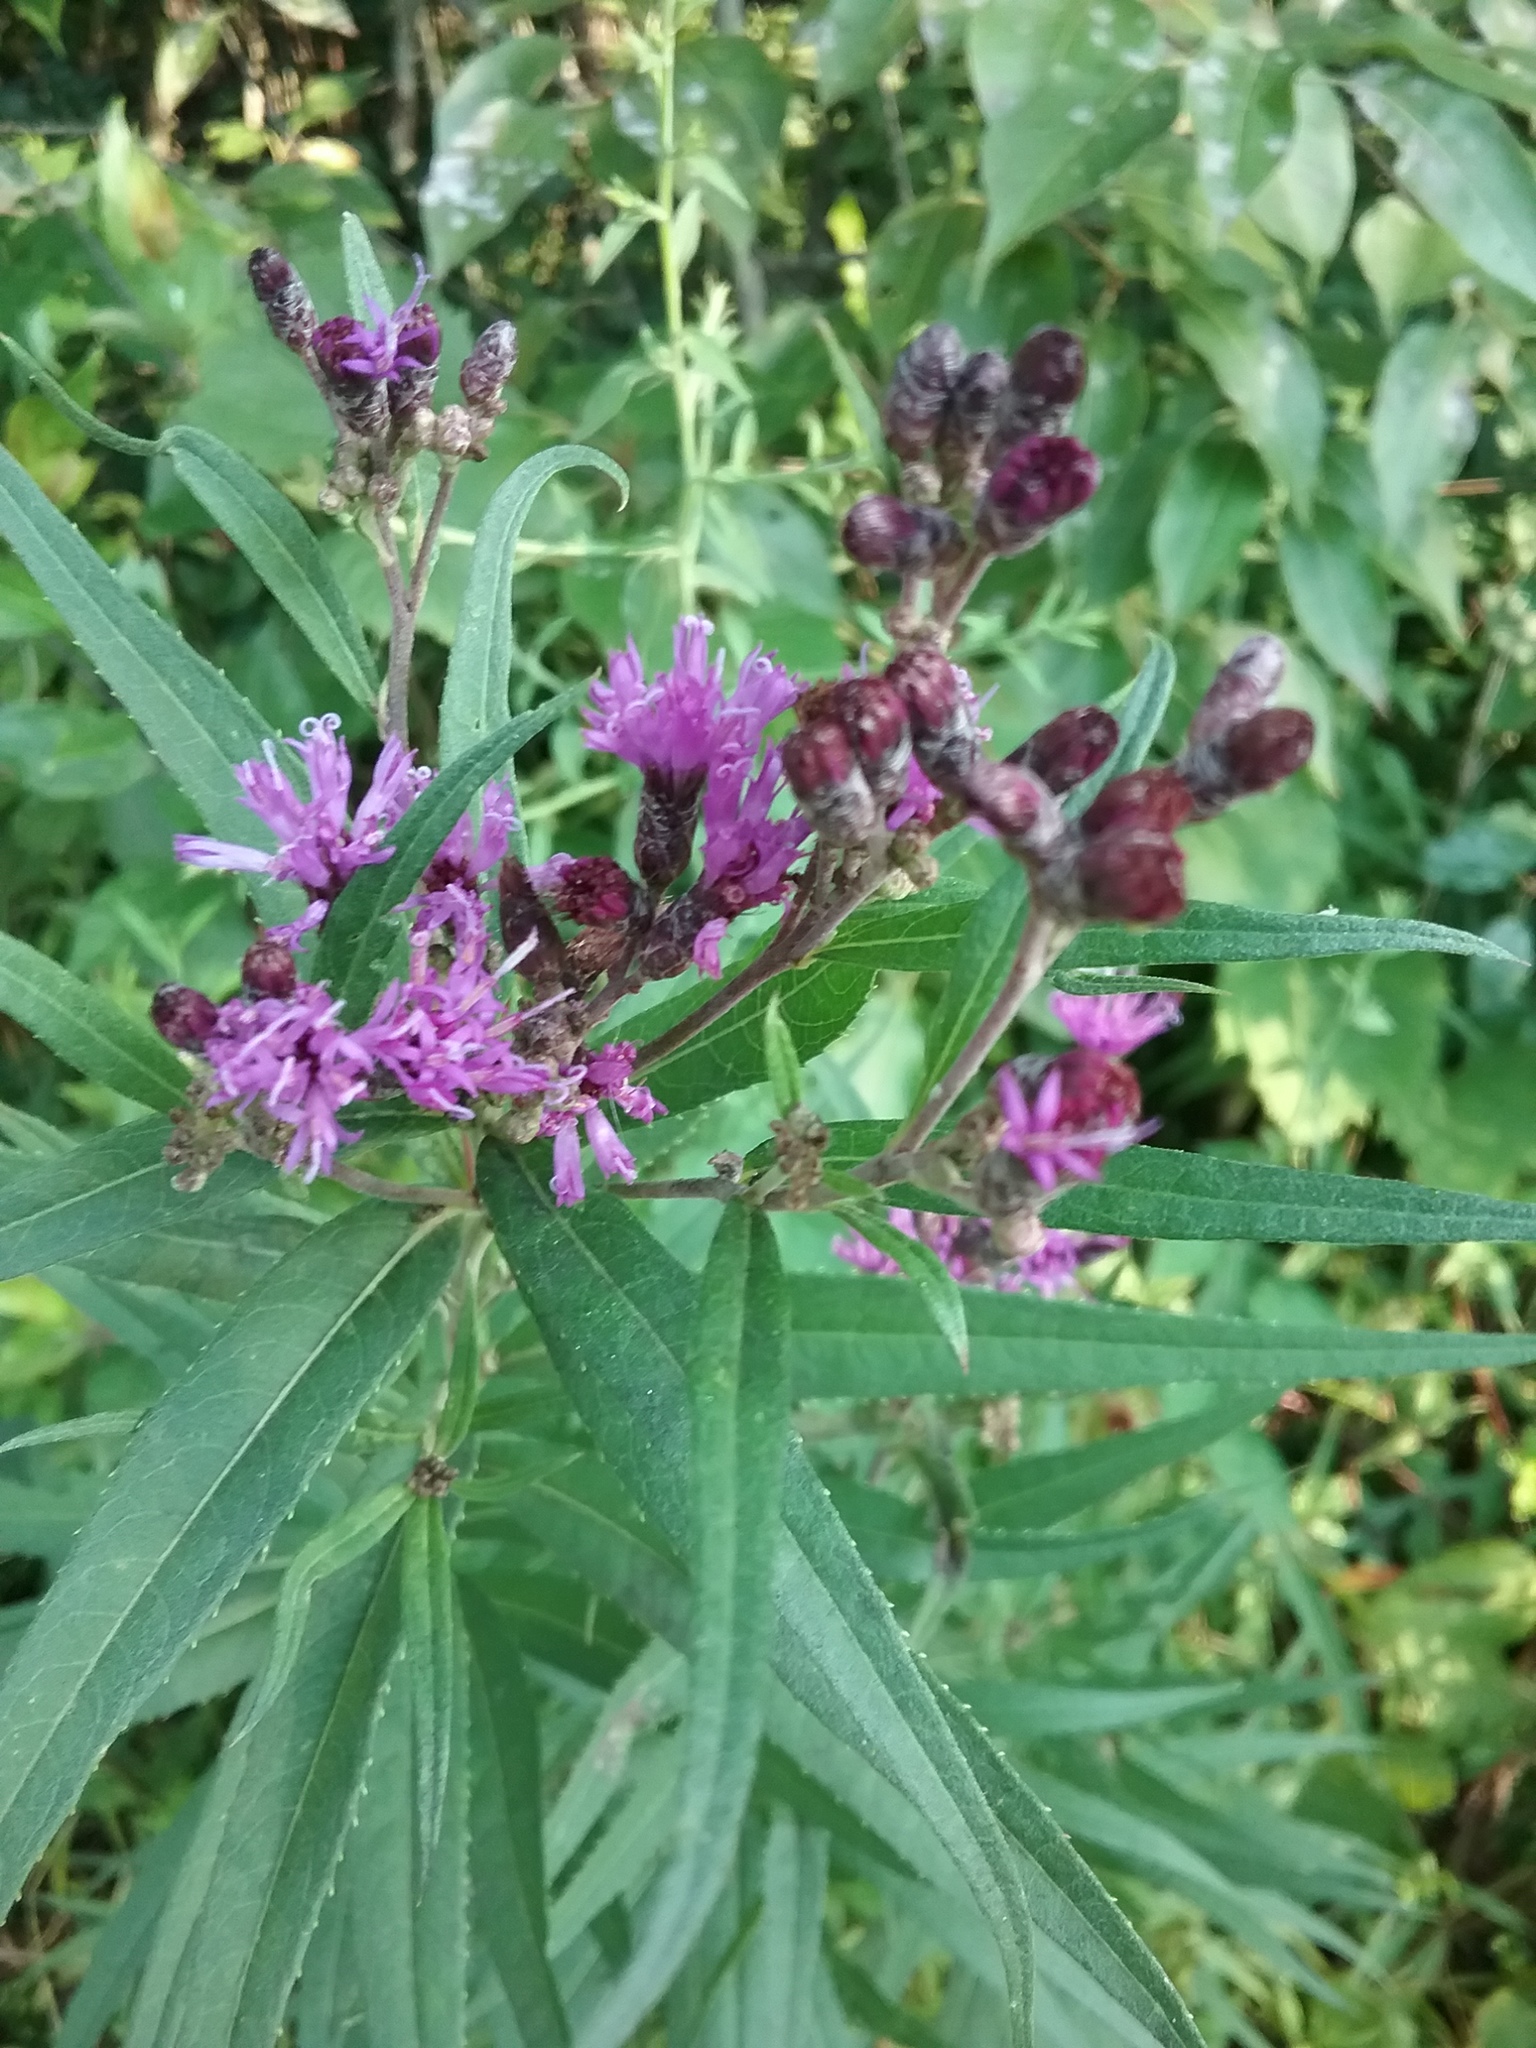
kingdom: Plantae
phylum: Tracheophyta
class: Magnoliopsida
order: Asterales
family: Asteraceae
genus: Vernonia
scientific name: Vernonia fasciculata
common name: Fascicled ironweed
